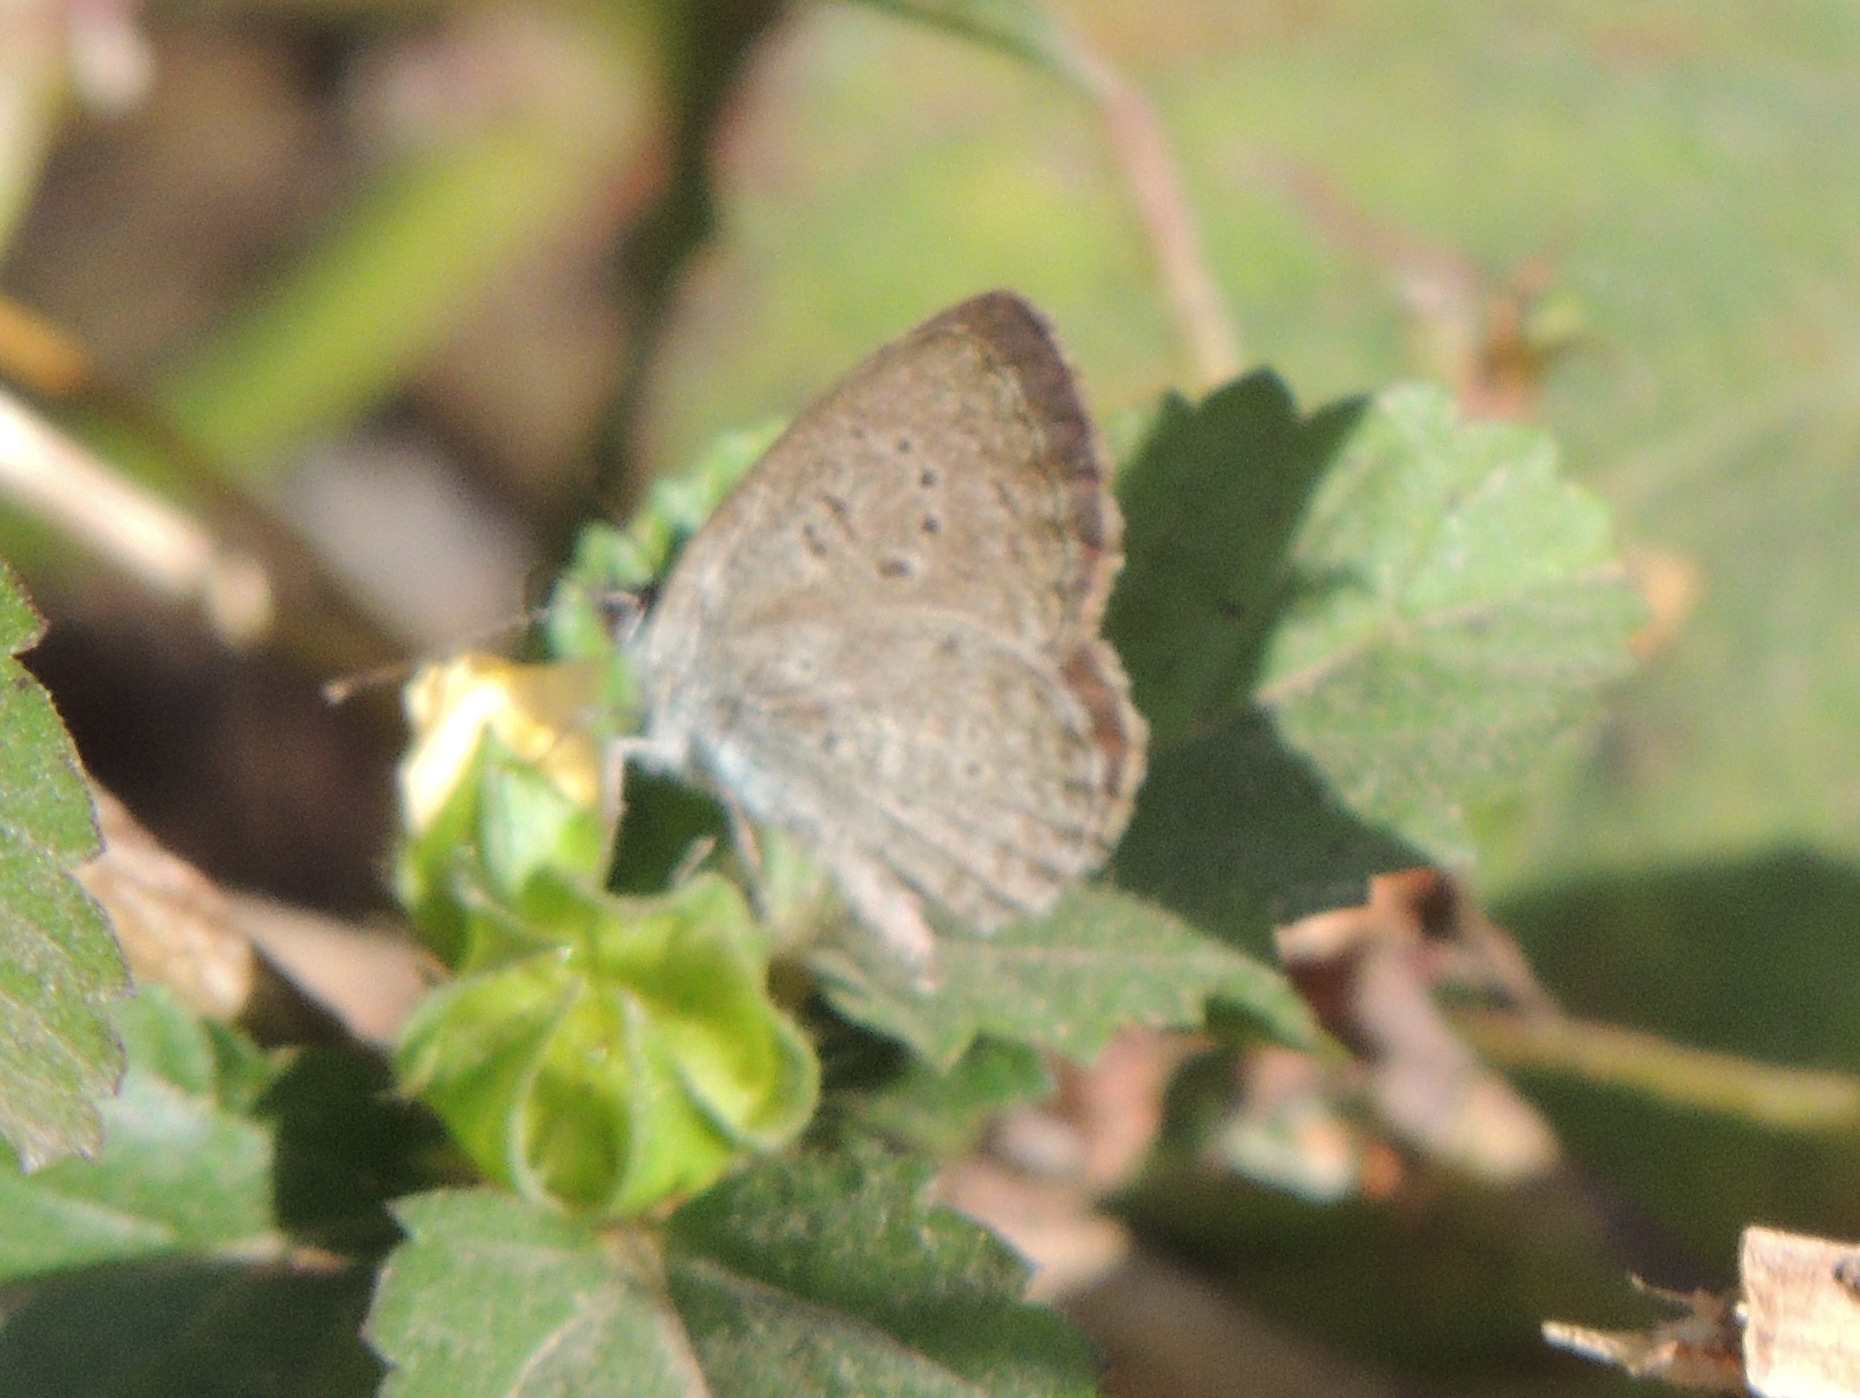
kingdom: Animalia
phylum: Arthropoda
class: Insecta
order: Lepidoptera
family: Lycaenidae
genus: Zizeeria
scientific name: Zizeeria knysna
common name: African grass blue
